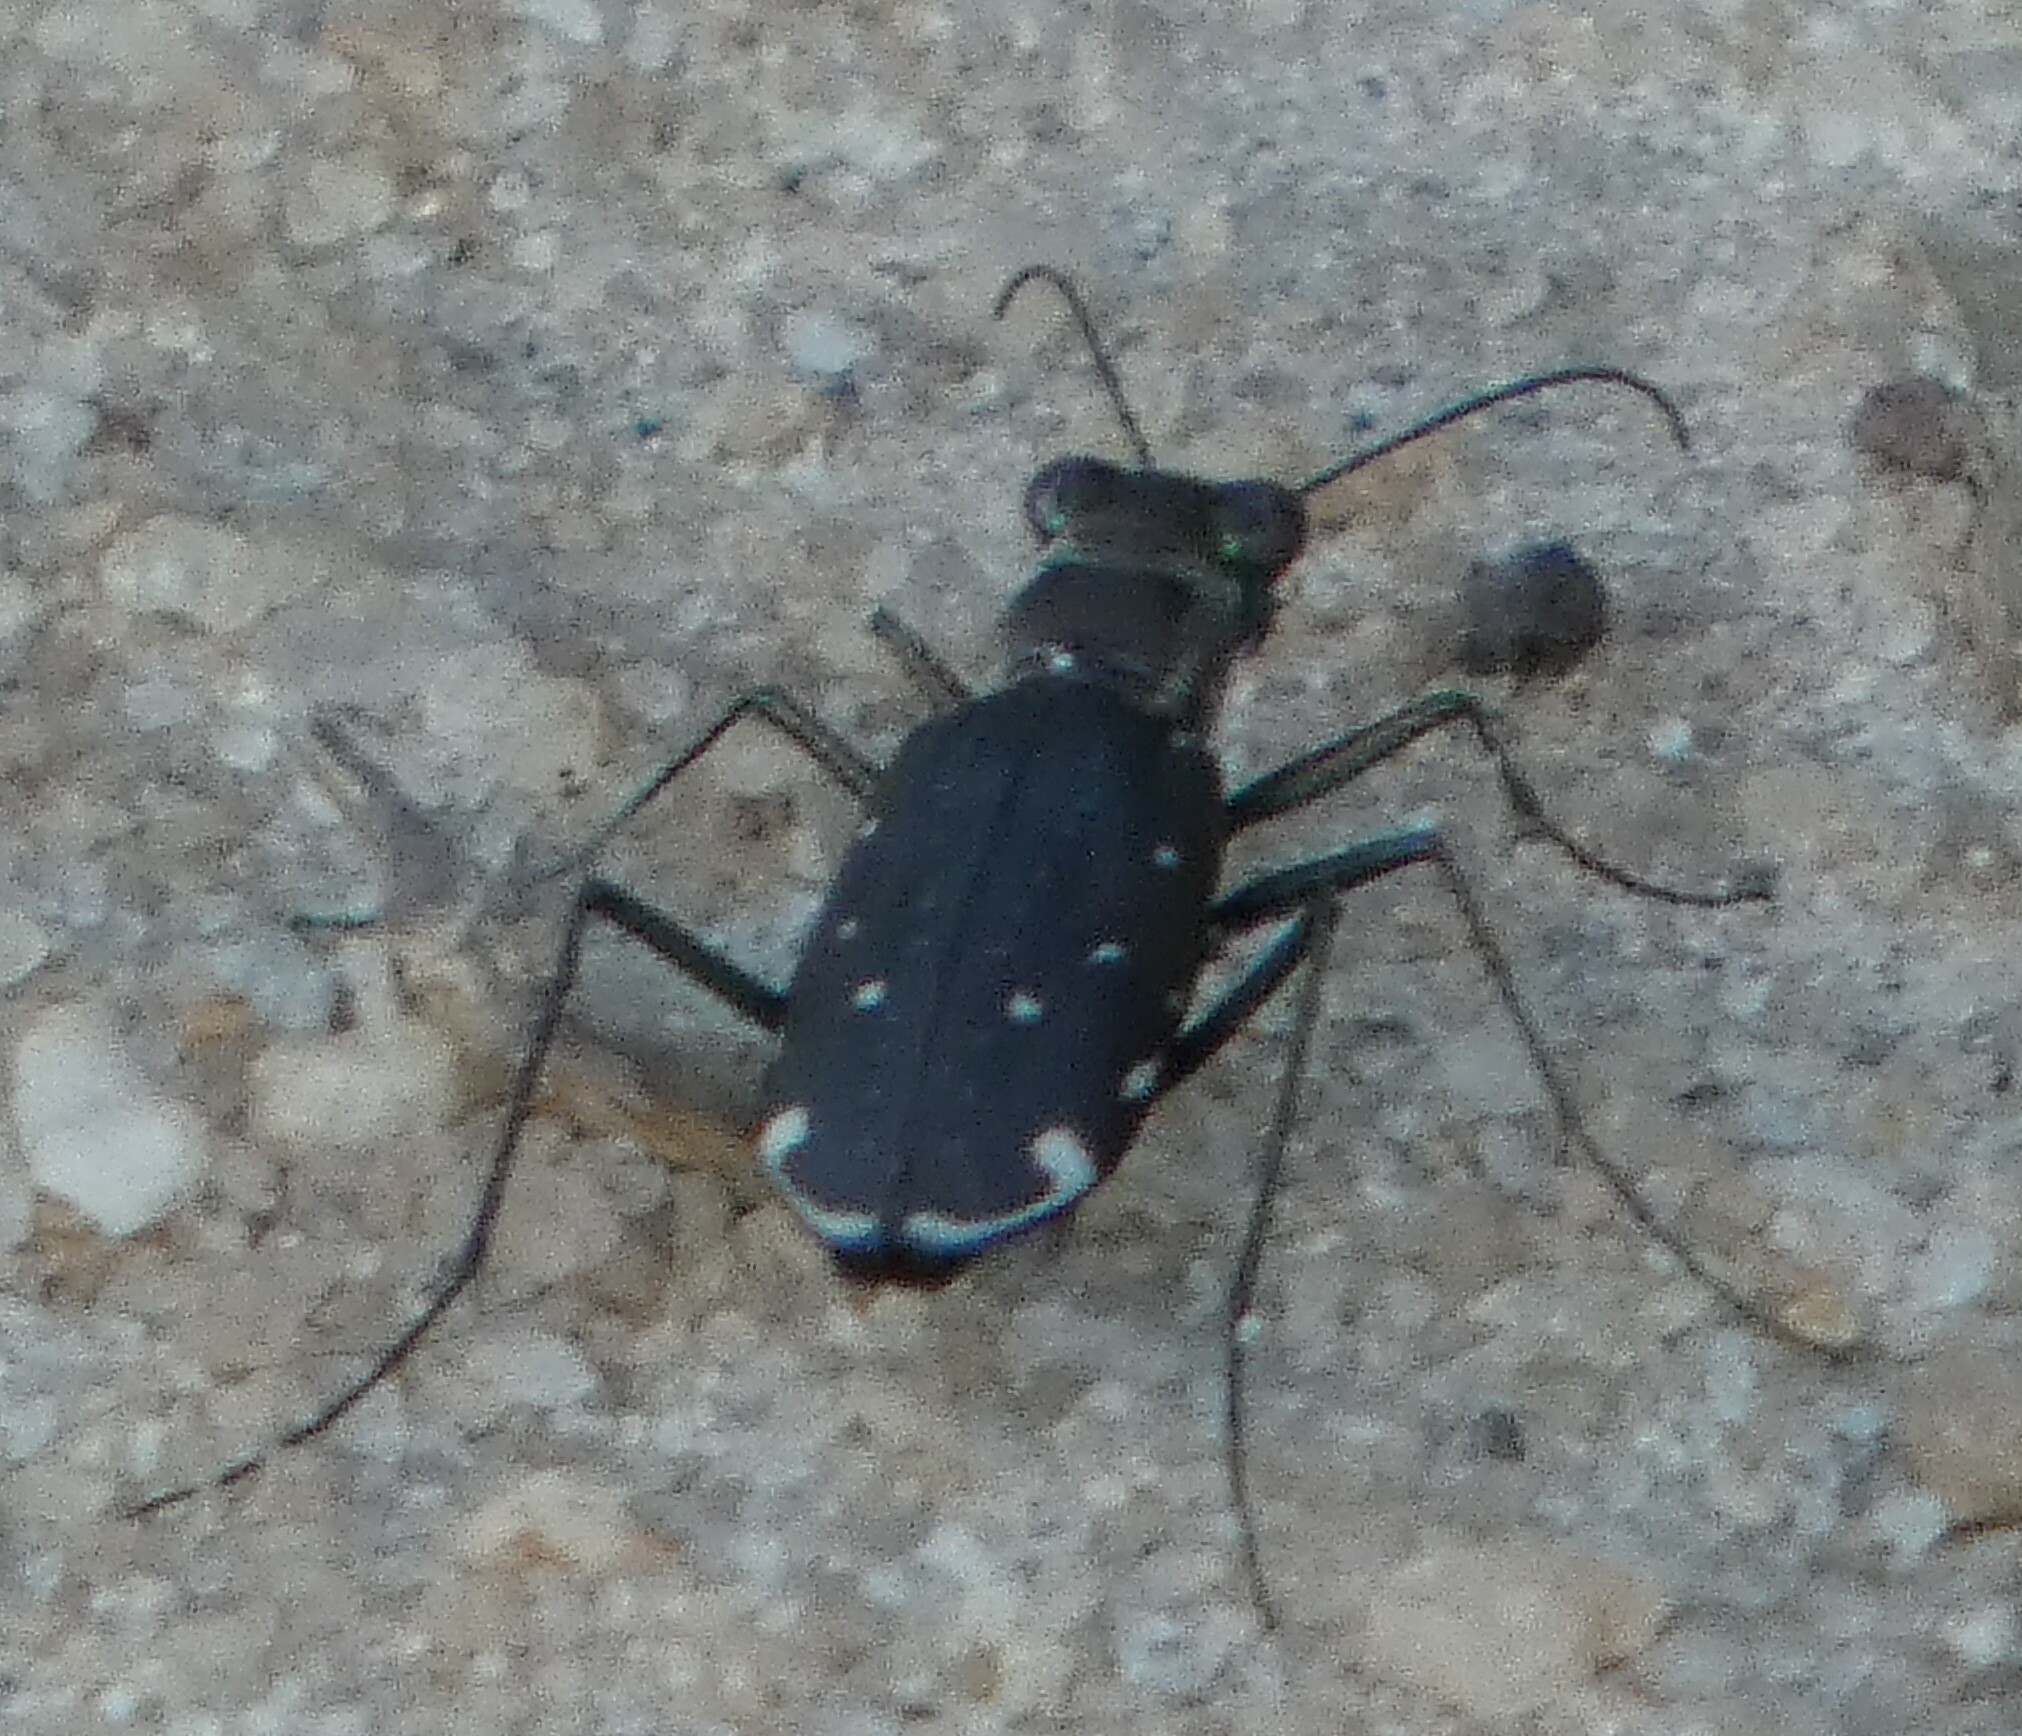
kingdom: Animalia
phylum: Arthropoda
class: Insecta
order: Coleoptera
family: Carabidae
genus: Cicindela
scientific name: Cicindela punctulata
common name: Punctured tiger beetle
